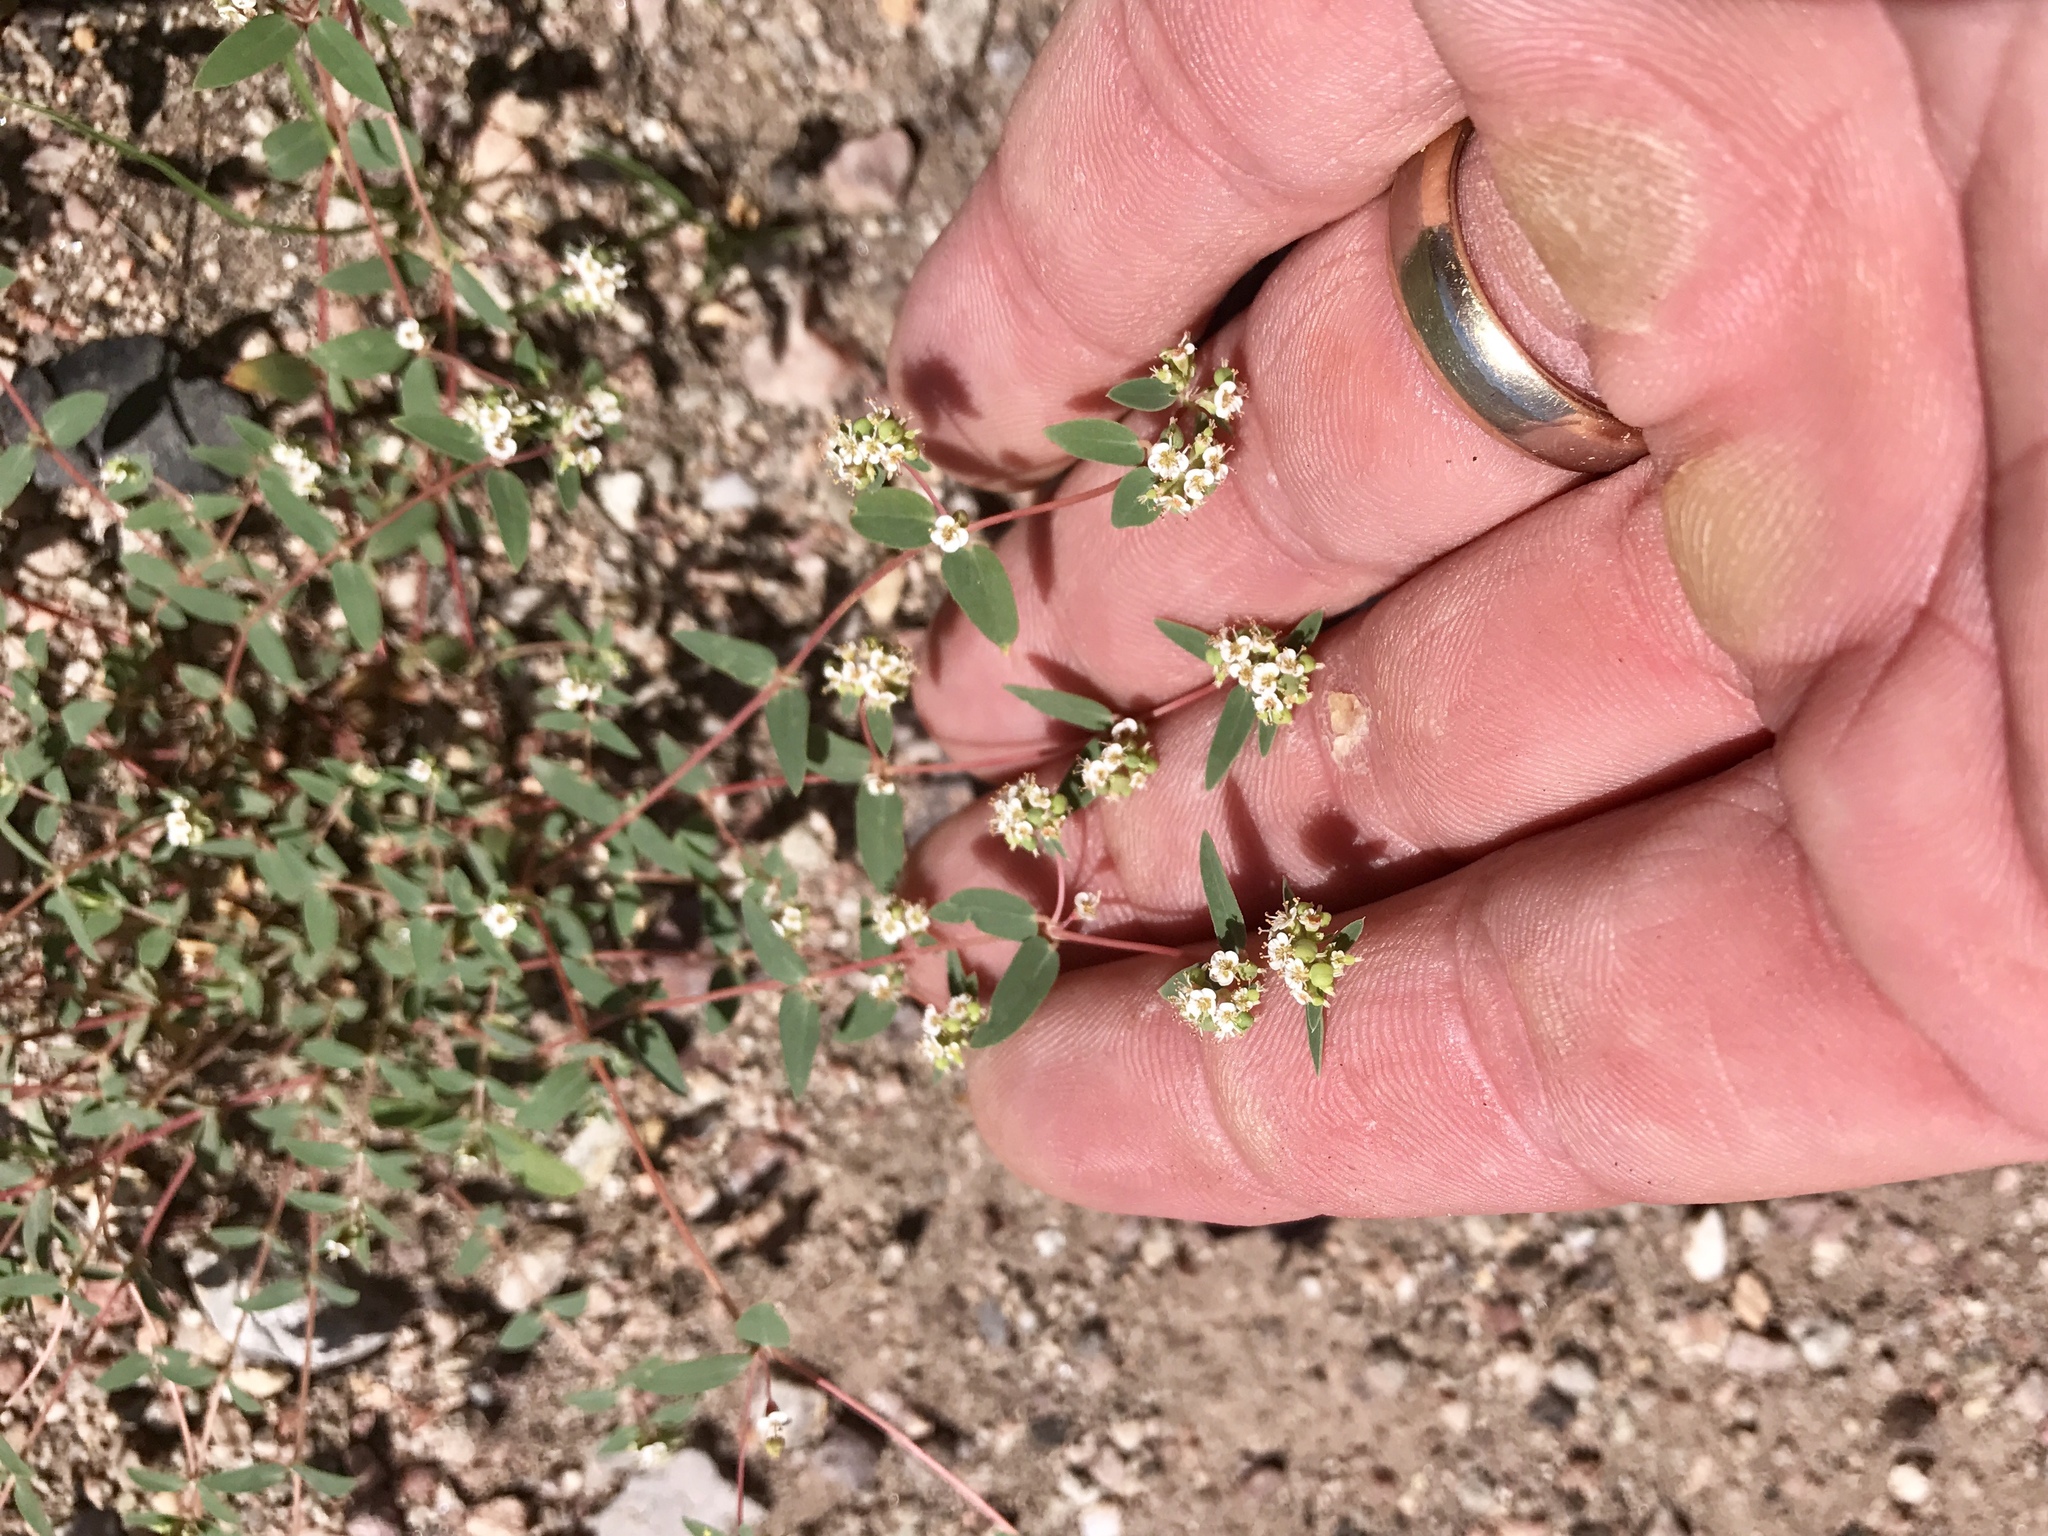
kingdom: Plantae
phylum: Tracheophyta
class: Magnoliopsida
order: Malpighiales
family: Euphorbiaceae
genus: Euphorbia
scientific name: Euphorbia capitellata
